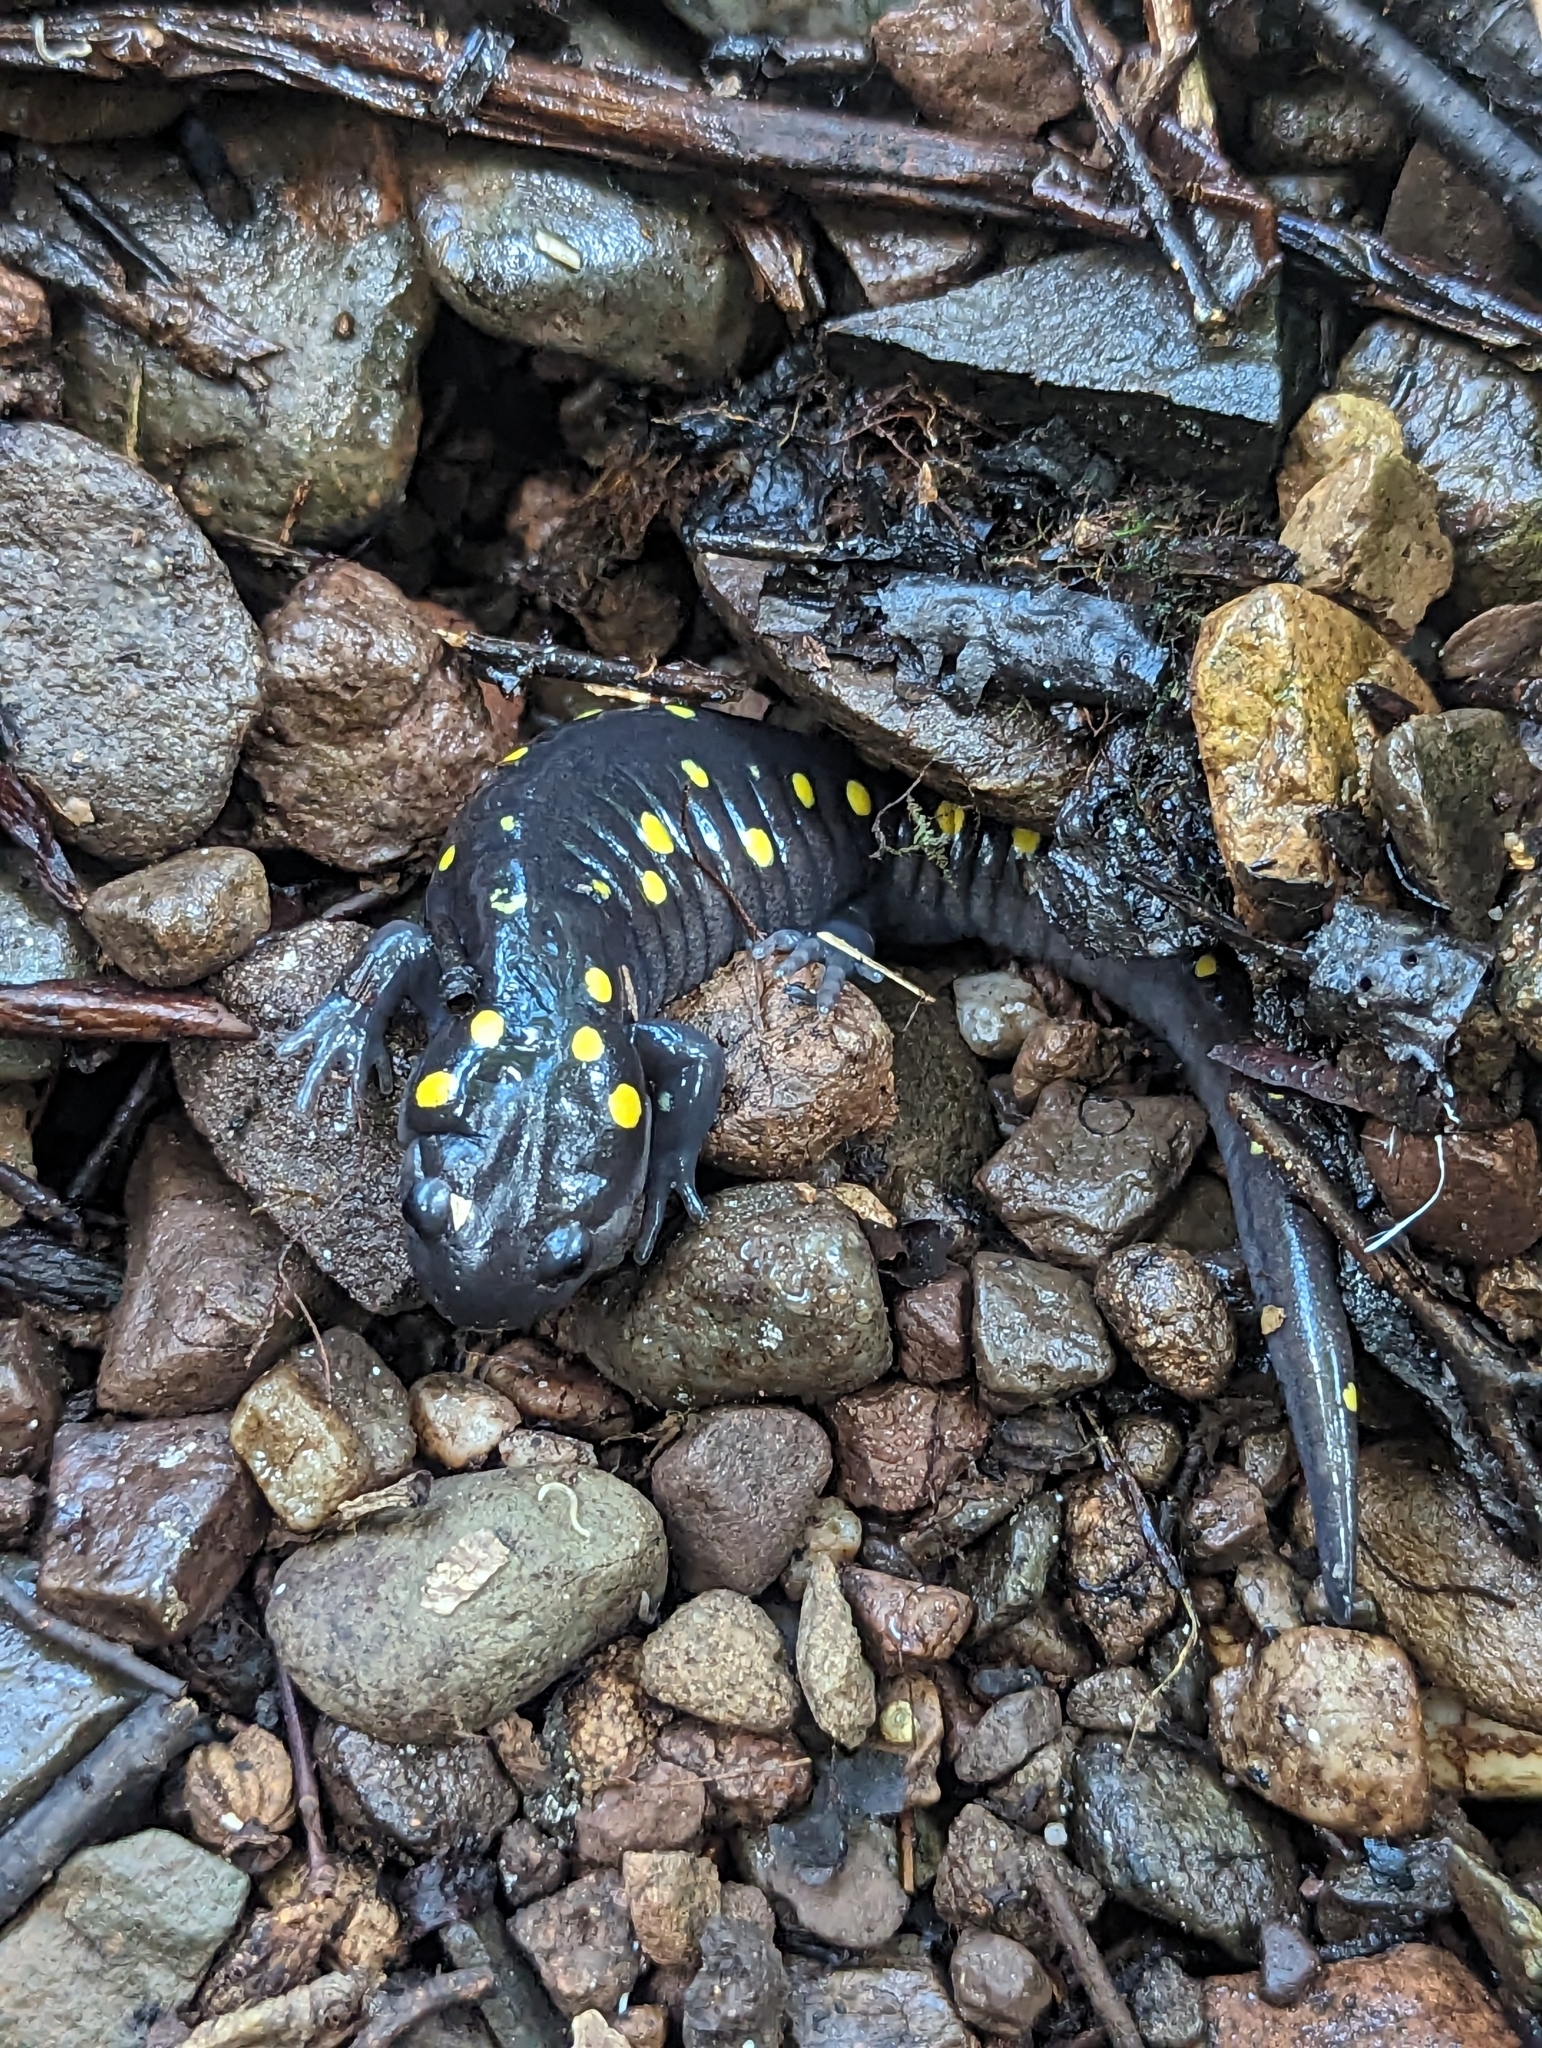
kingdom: Animalia
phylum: Chordata
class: Amphibia
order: Caudata
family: Ambystomatidae
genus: Ambystoma
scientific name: Ambystoma maculatum
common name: Spotted salamander
